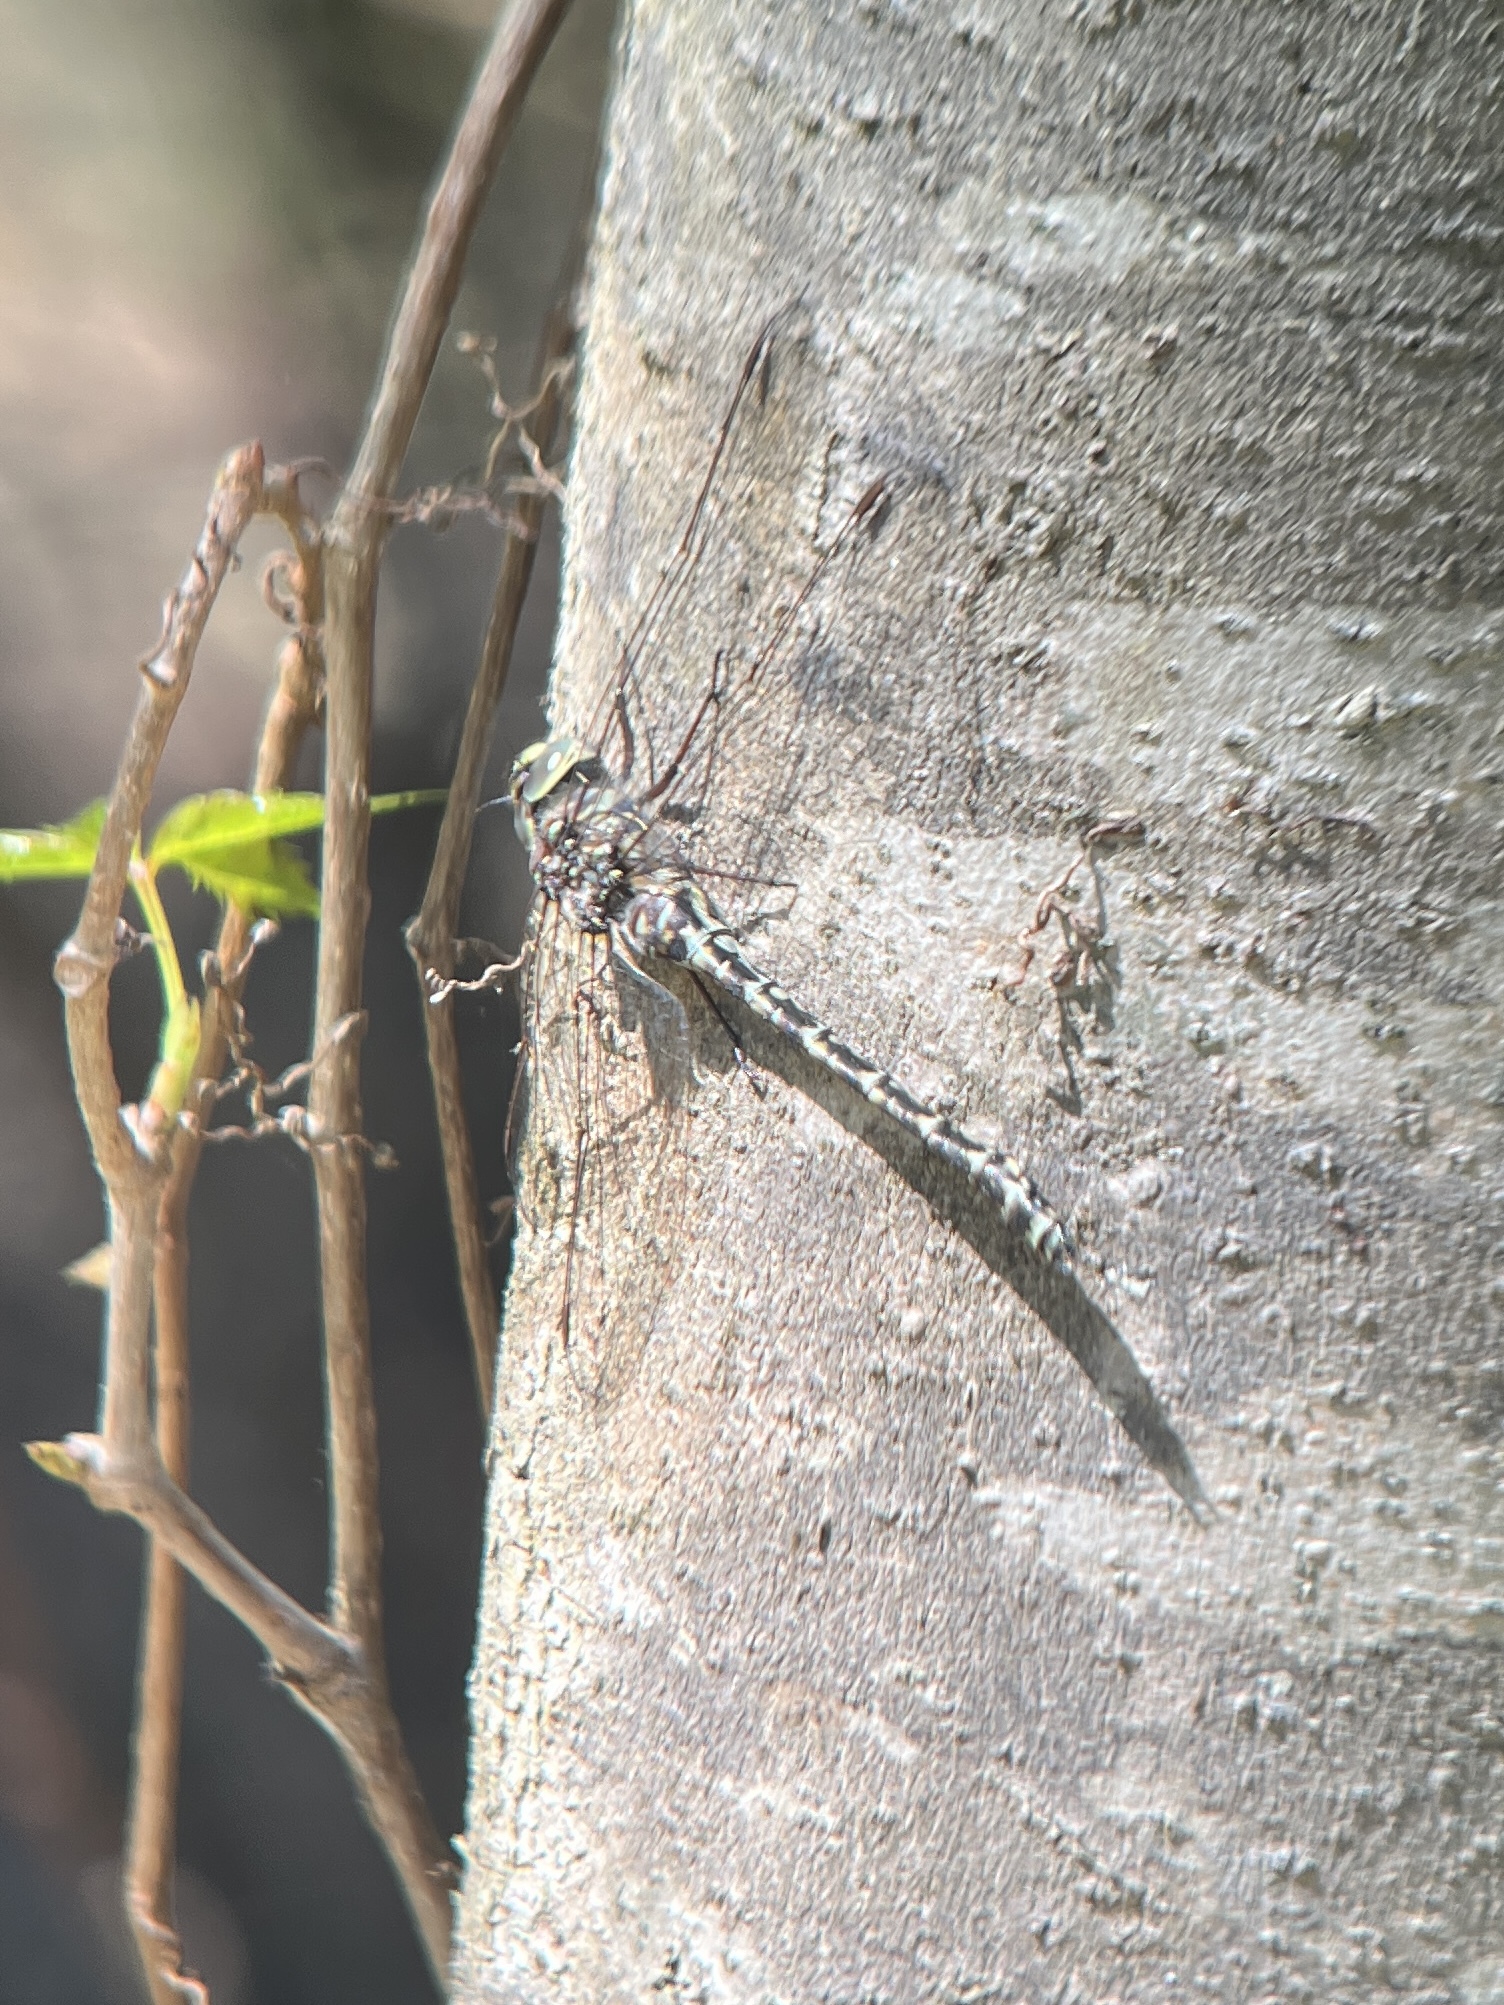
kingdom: Animalia
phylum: Arthropoda
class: Insecta
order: Odonata
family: Aeshnidae
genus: Gomphaeschna
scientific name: Gomphaeschna furcillata
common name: Harlequin darner
